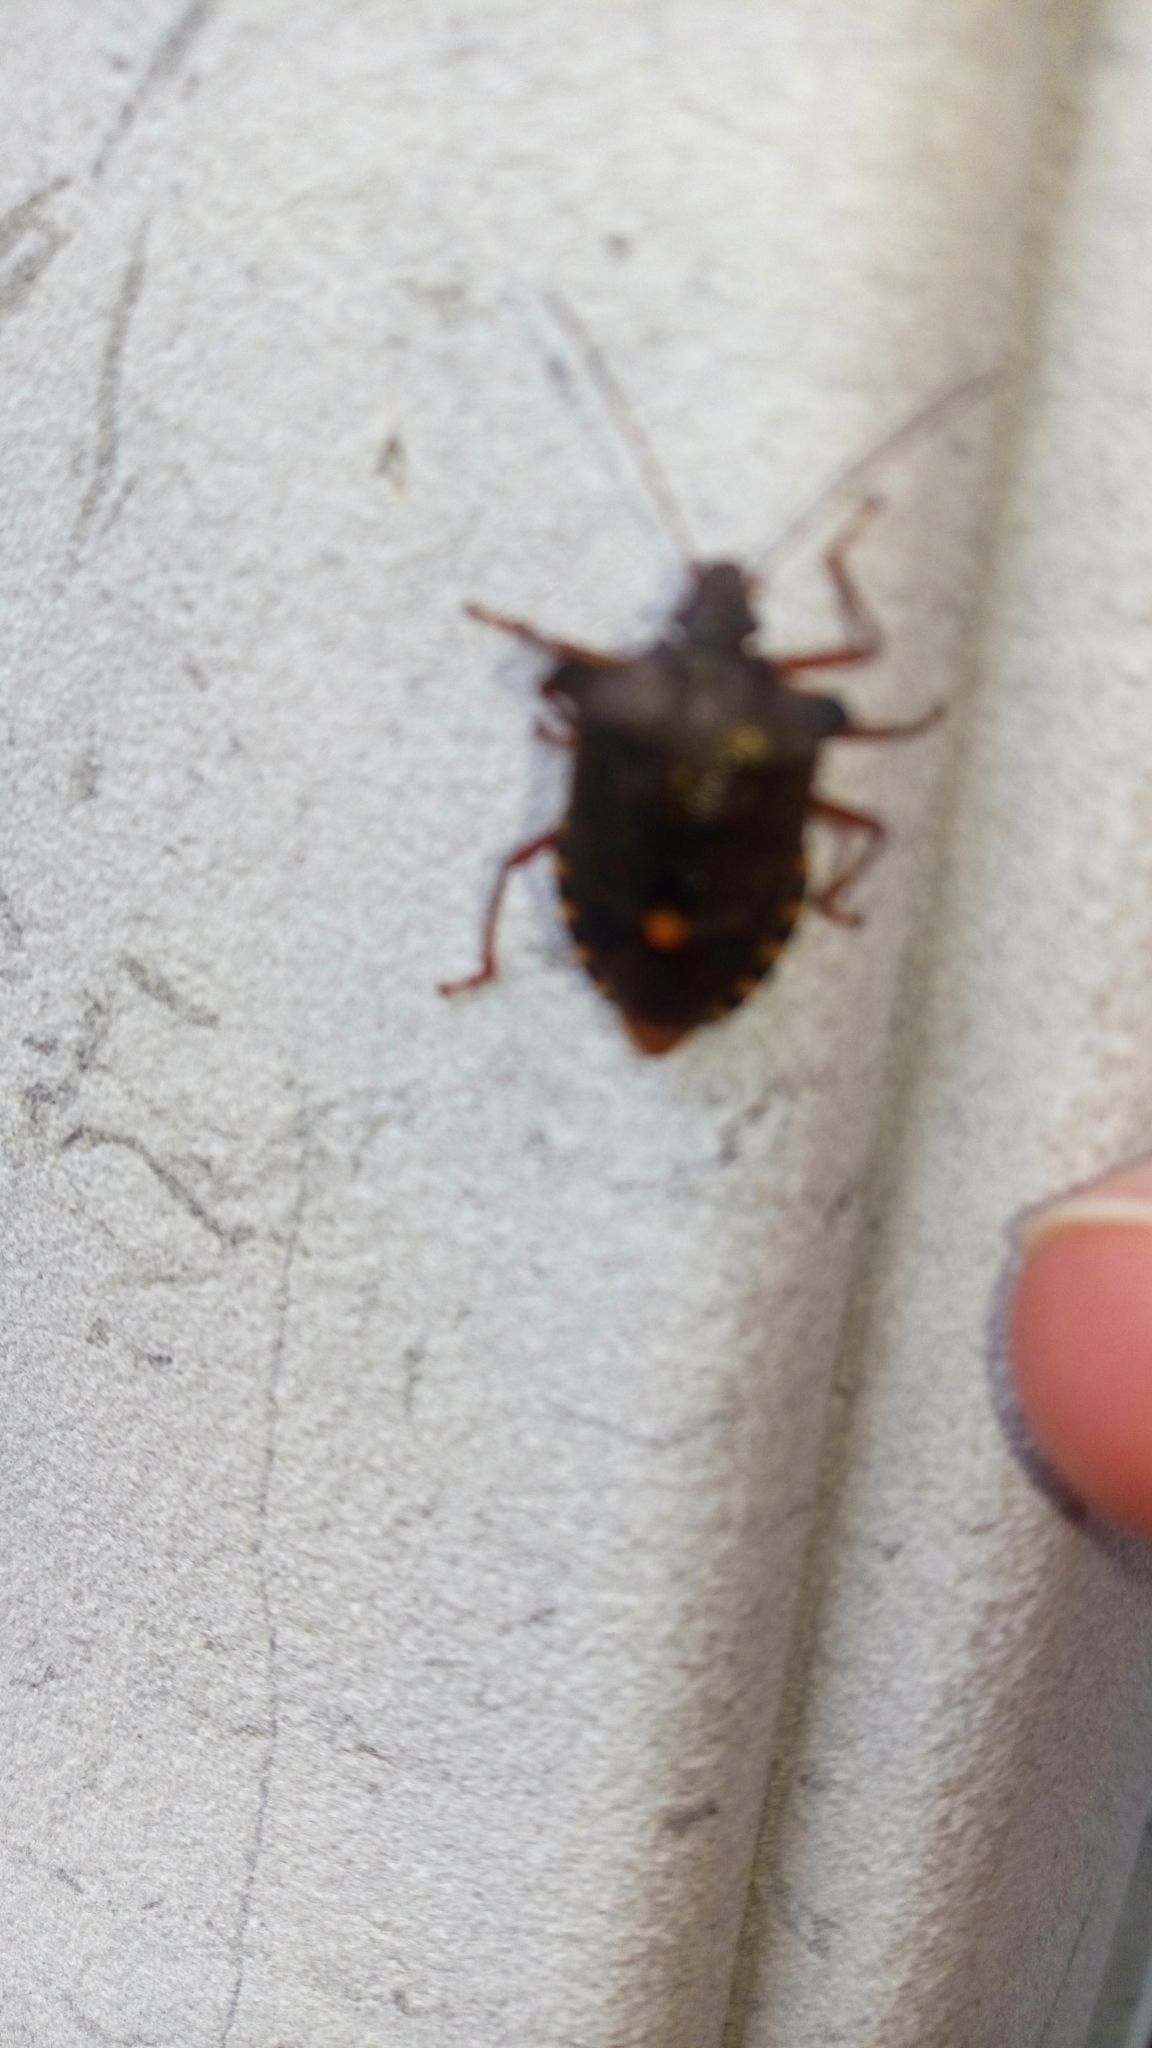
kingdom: Animalia
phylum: Arthropoda
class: Insecta
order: Hemiptera
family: Pentatomidae
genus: Pentatoma
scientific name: Pentatoma rufipes
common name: Forest bug
